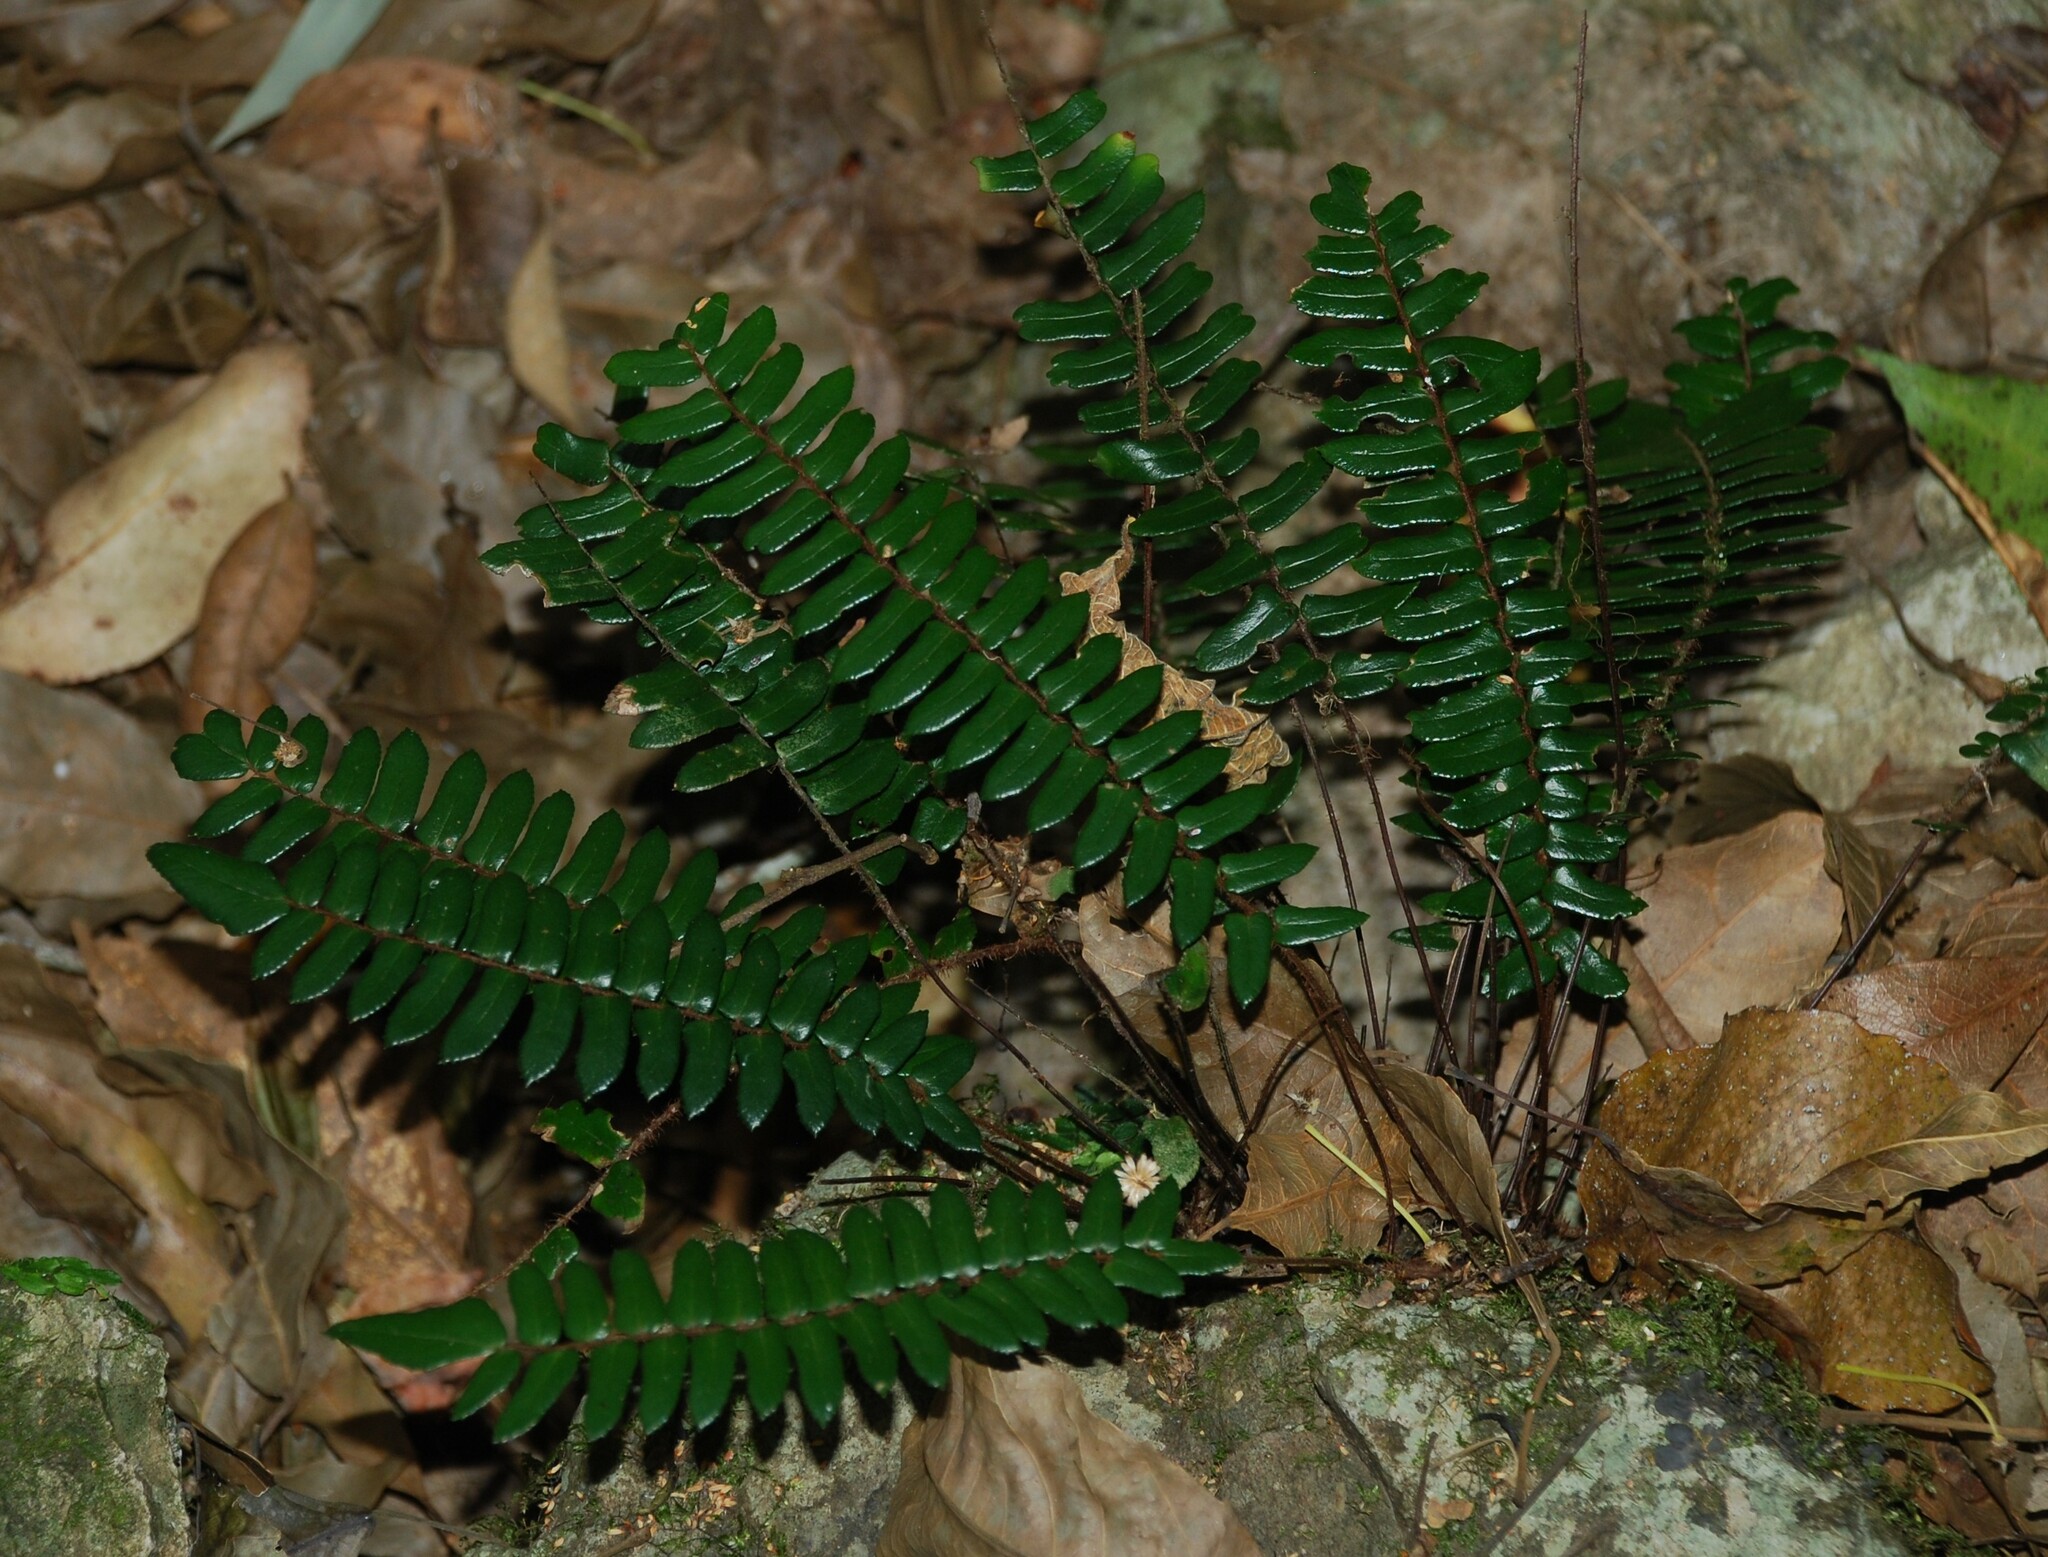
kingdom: Plantae
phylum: Tracheophyta
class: Polypodiopsida
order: Polypodiales
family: Pteridaceae
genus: Pellaea
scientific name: Pellaea nana
